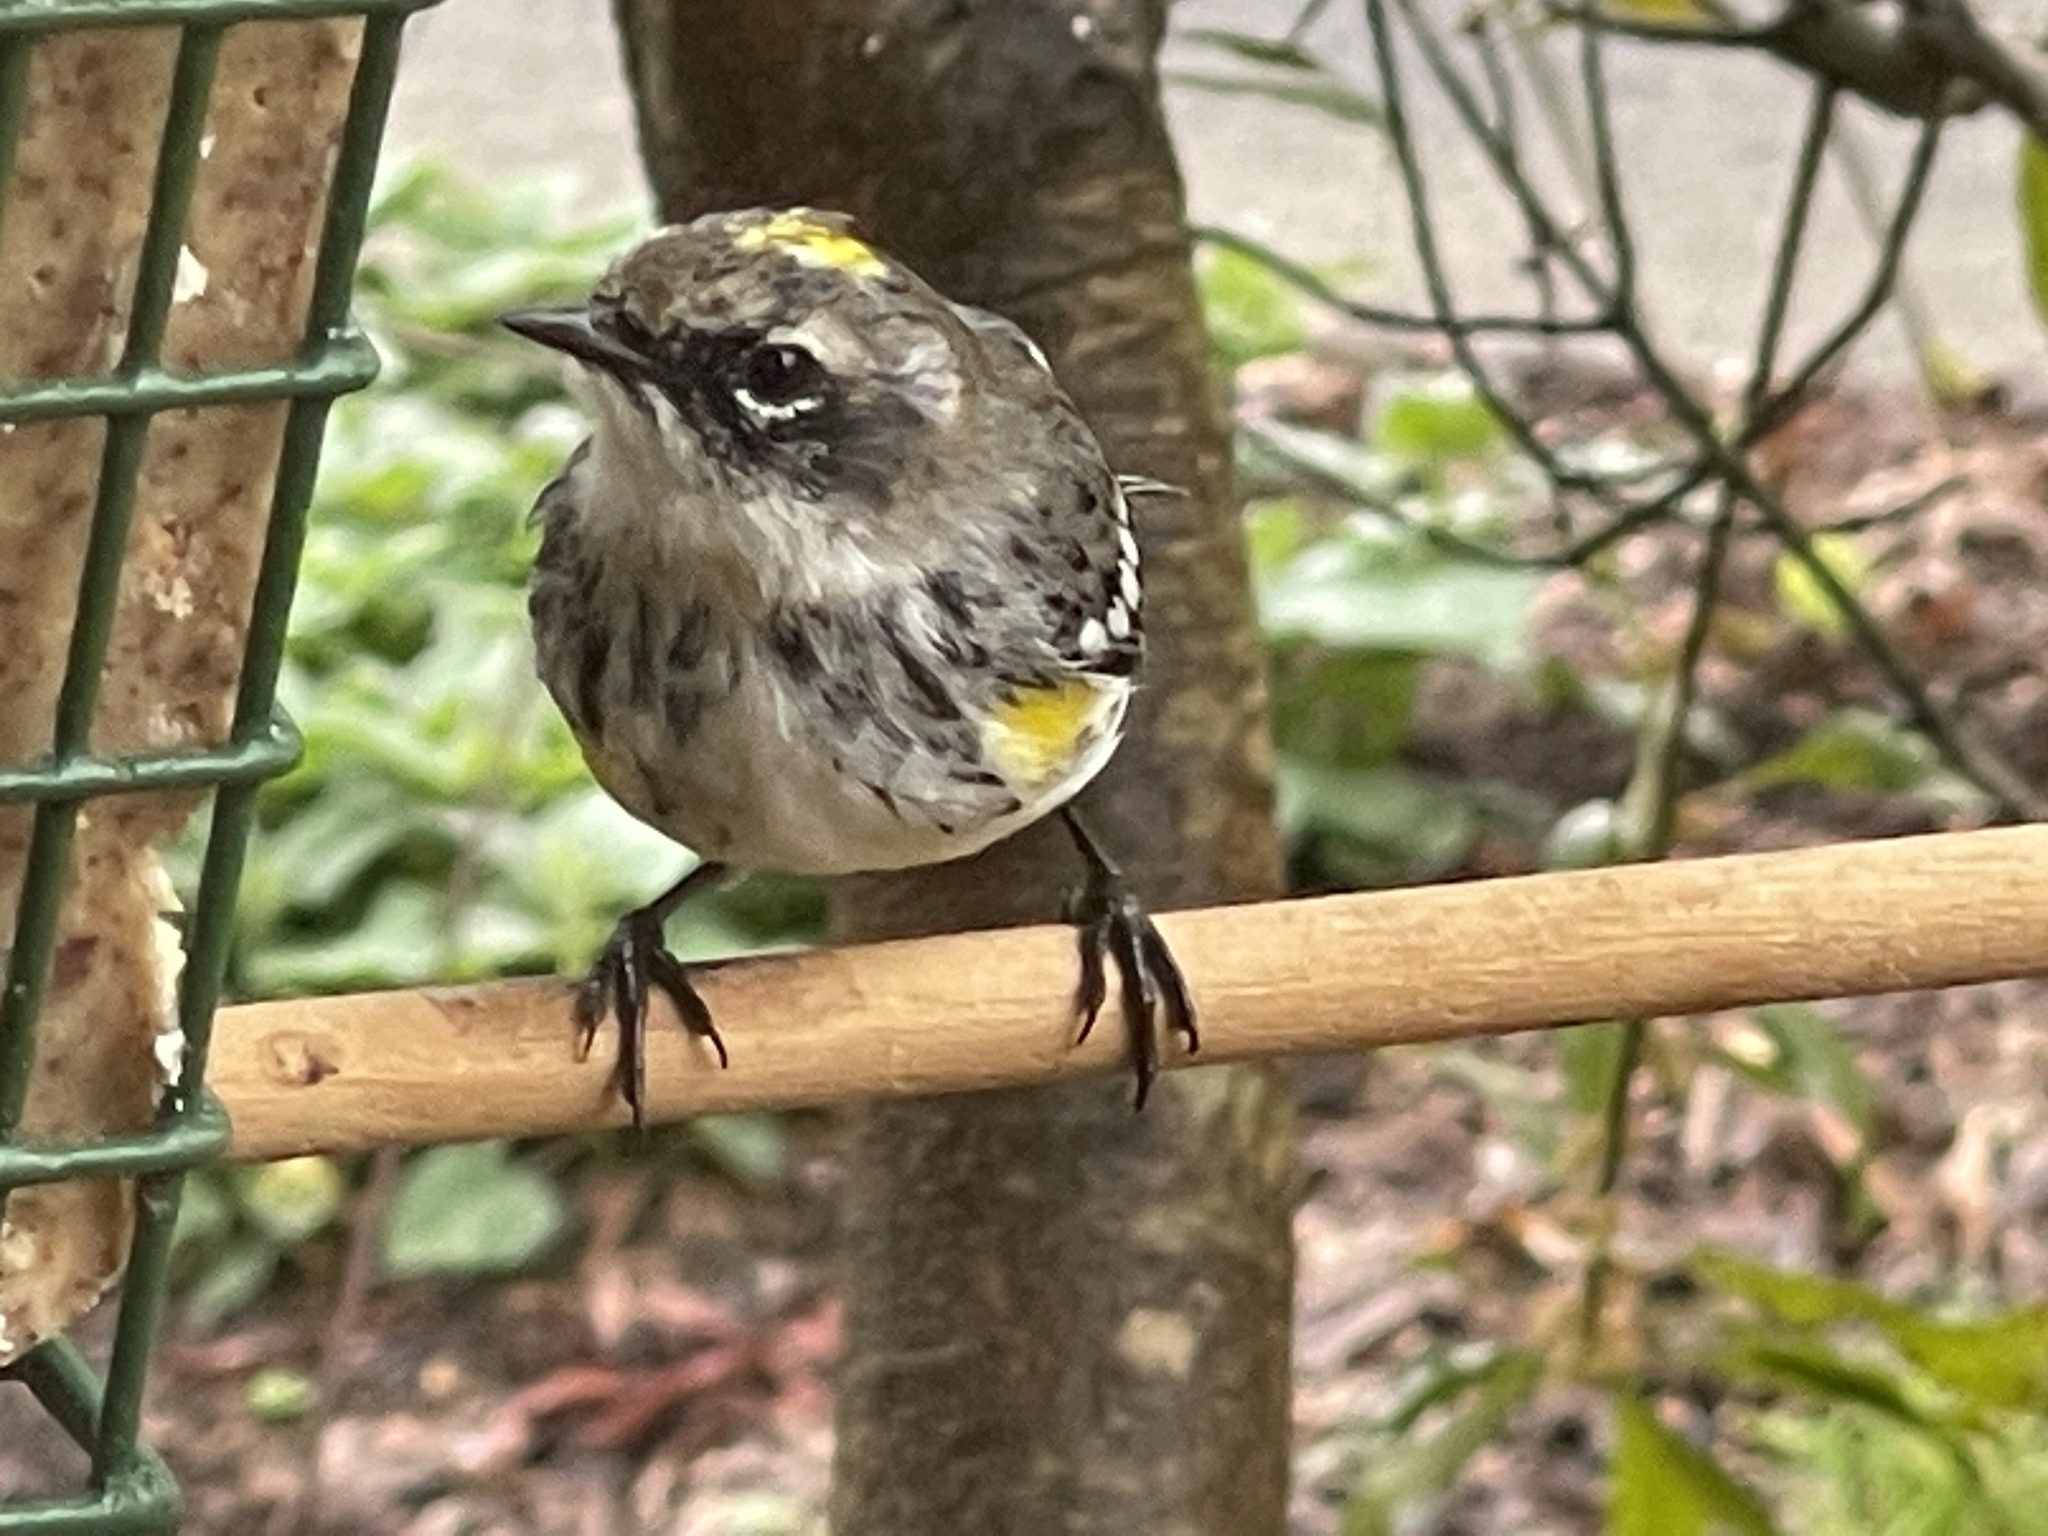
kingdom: Animalia
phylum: Chordata
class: Aves
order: Passeriformes
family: Parulidae
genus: Setophaga
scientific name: Setophaga coronata
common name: Myrtle warbler
